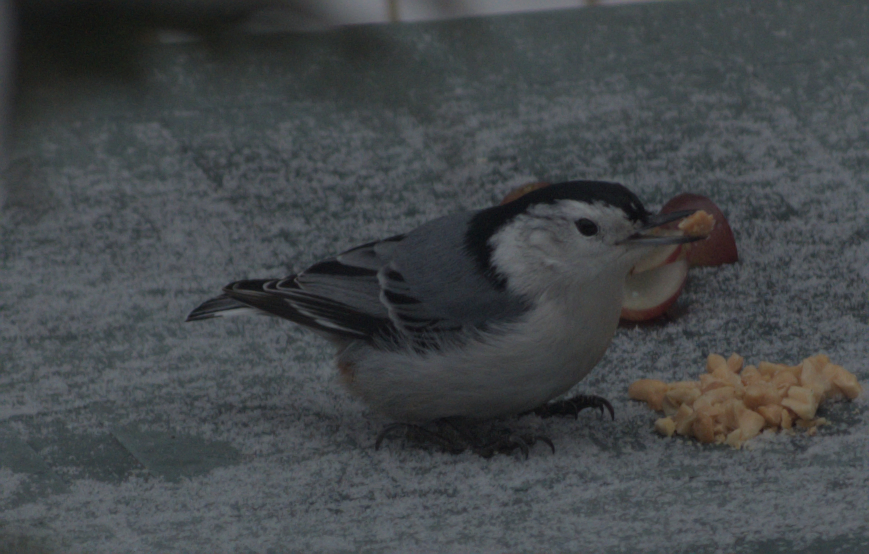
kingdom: Animalia
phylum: Chordata
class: Aves
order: Passeriformes
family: Sittidae
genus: Sitta
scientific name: Sitta carolinensis
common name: White-breasted nuthatch
